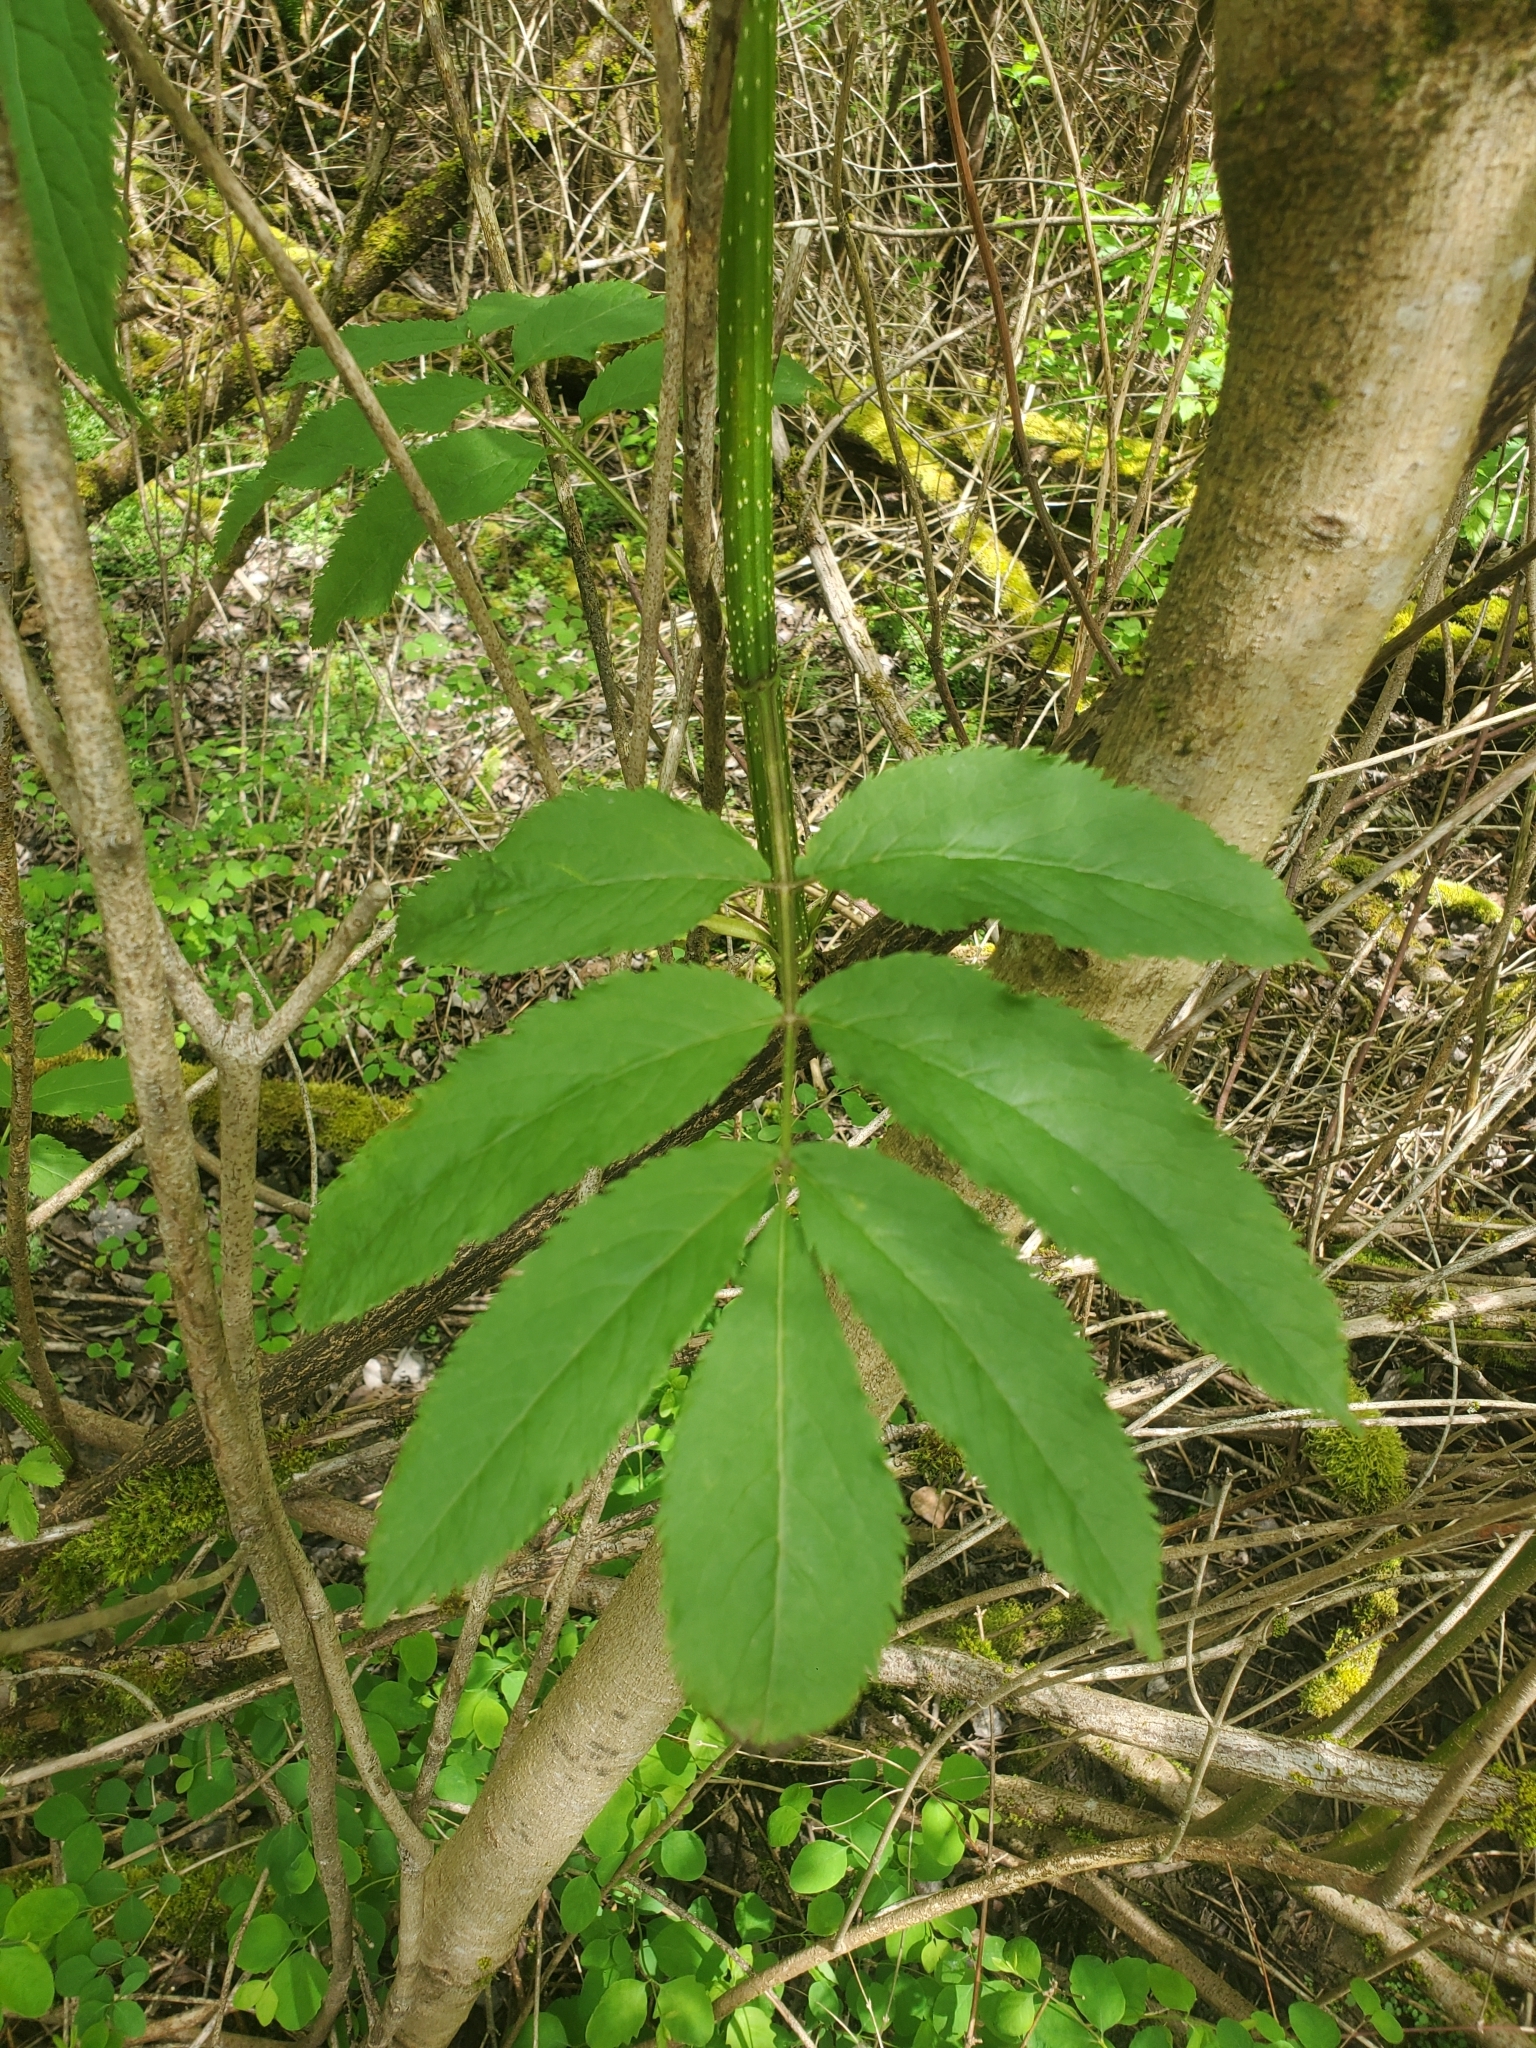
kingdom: Plantae
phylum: Tracheophyta
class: Magnoliopsida
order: Dipsacales
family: Viburnaceae
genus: Sambucus
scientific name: Sambucus racemosa
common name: Red-berried elder
